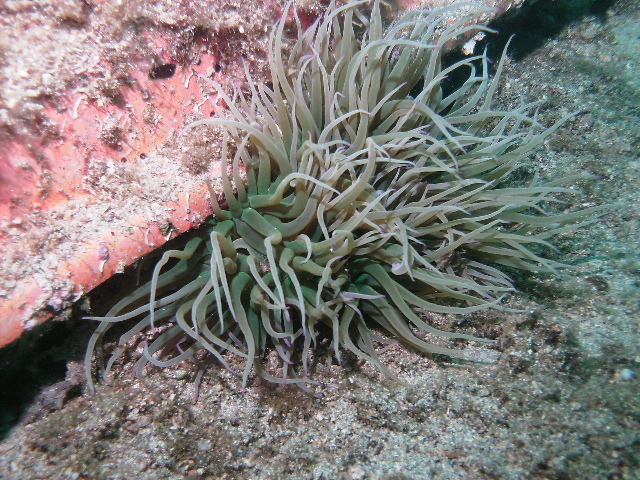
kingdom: Animalia
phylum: Cnidaria
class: Anthozoa
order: Actiniaria
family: Actiniidae
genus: Anemonia
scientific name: Anemonia viridis
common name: Snakelocks anemone
